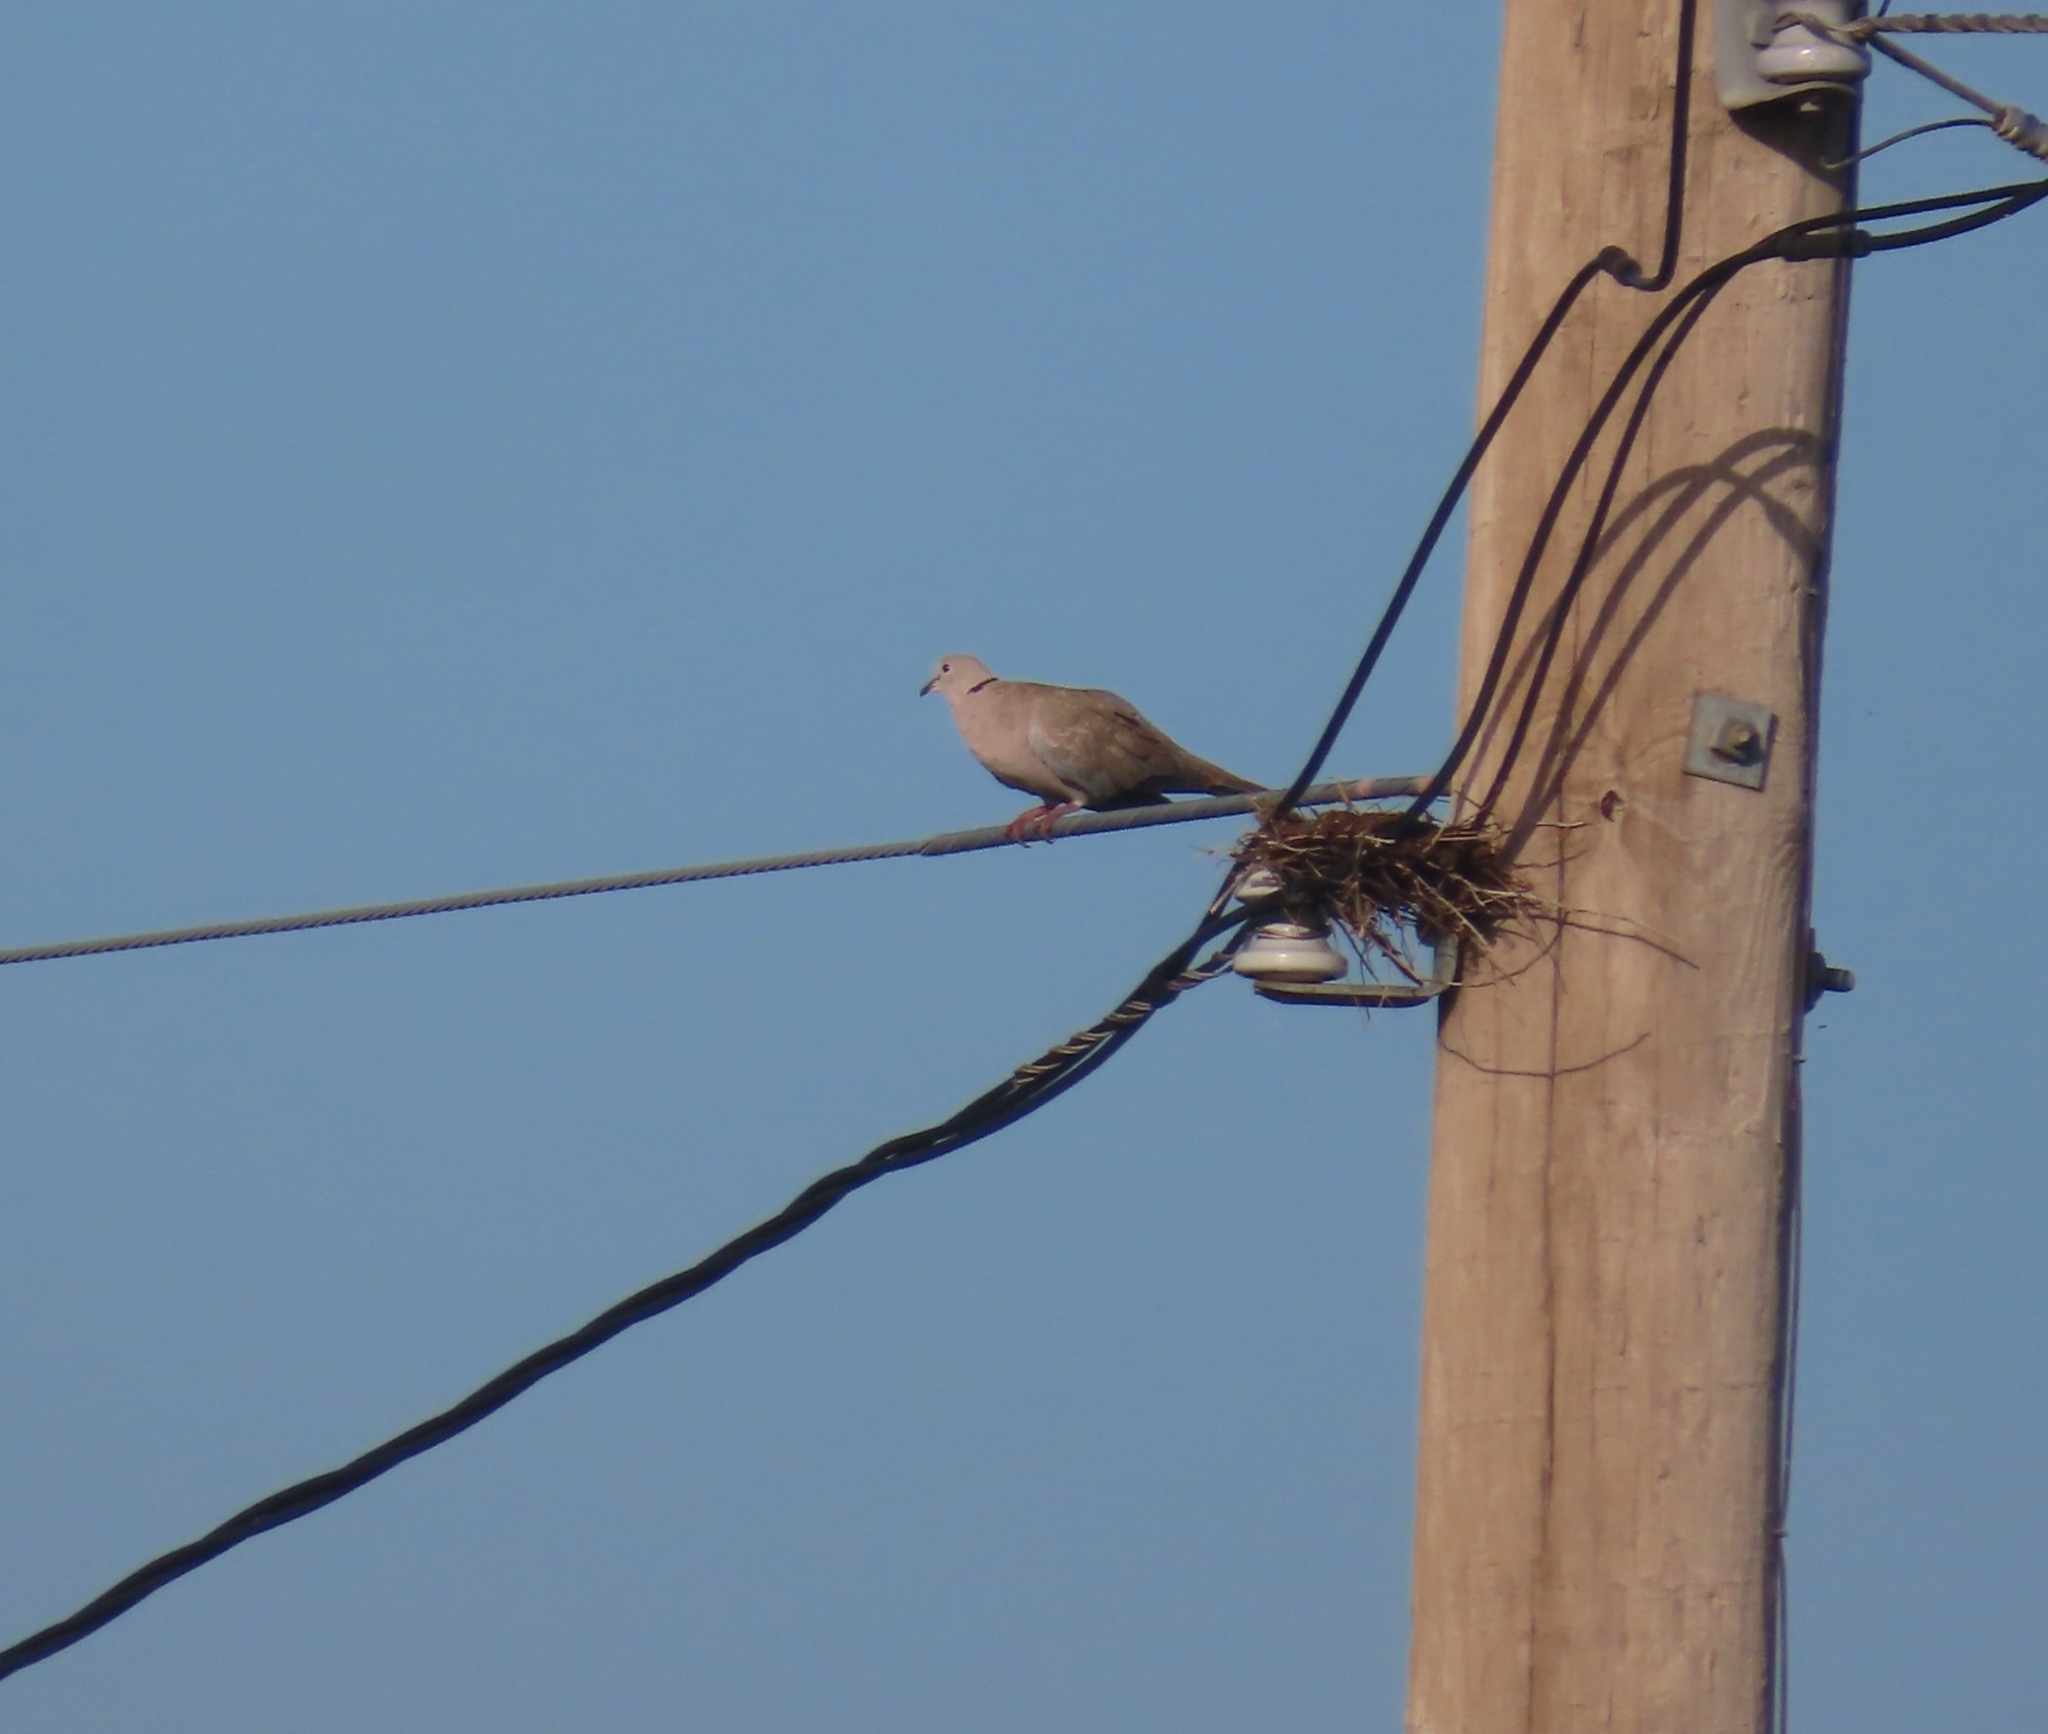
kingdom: Animalia
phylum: Chordata
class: Aves
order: Columbiformes
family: Columbidae
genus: Streptopelia
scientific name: Streptopelia decaocto
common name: Eurasian collared dove
